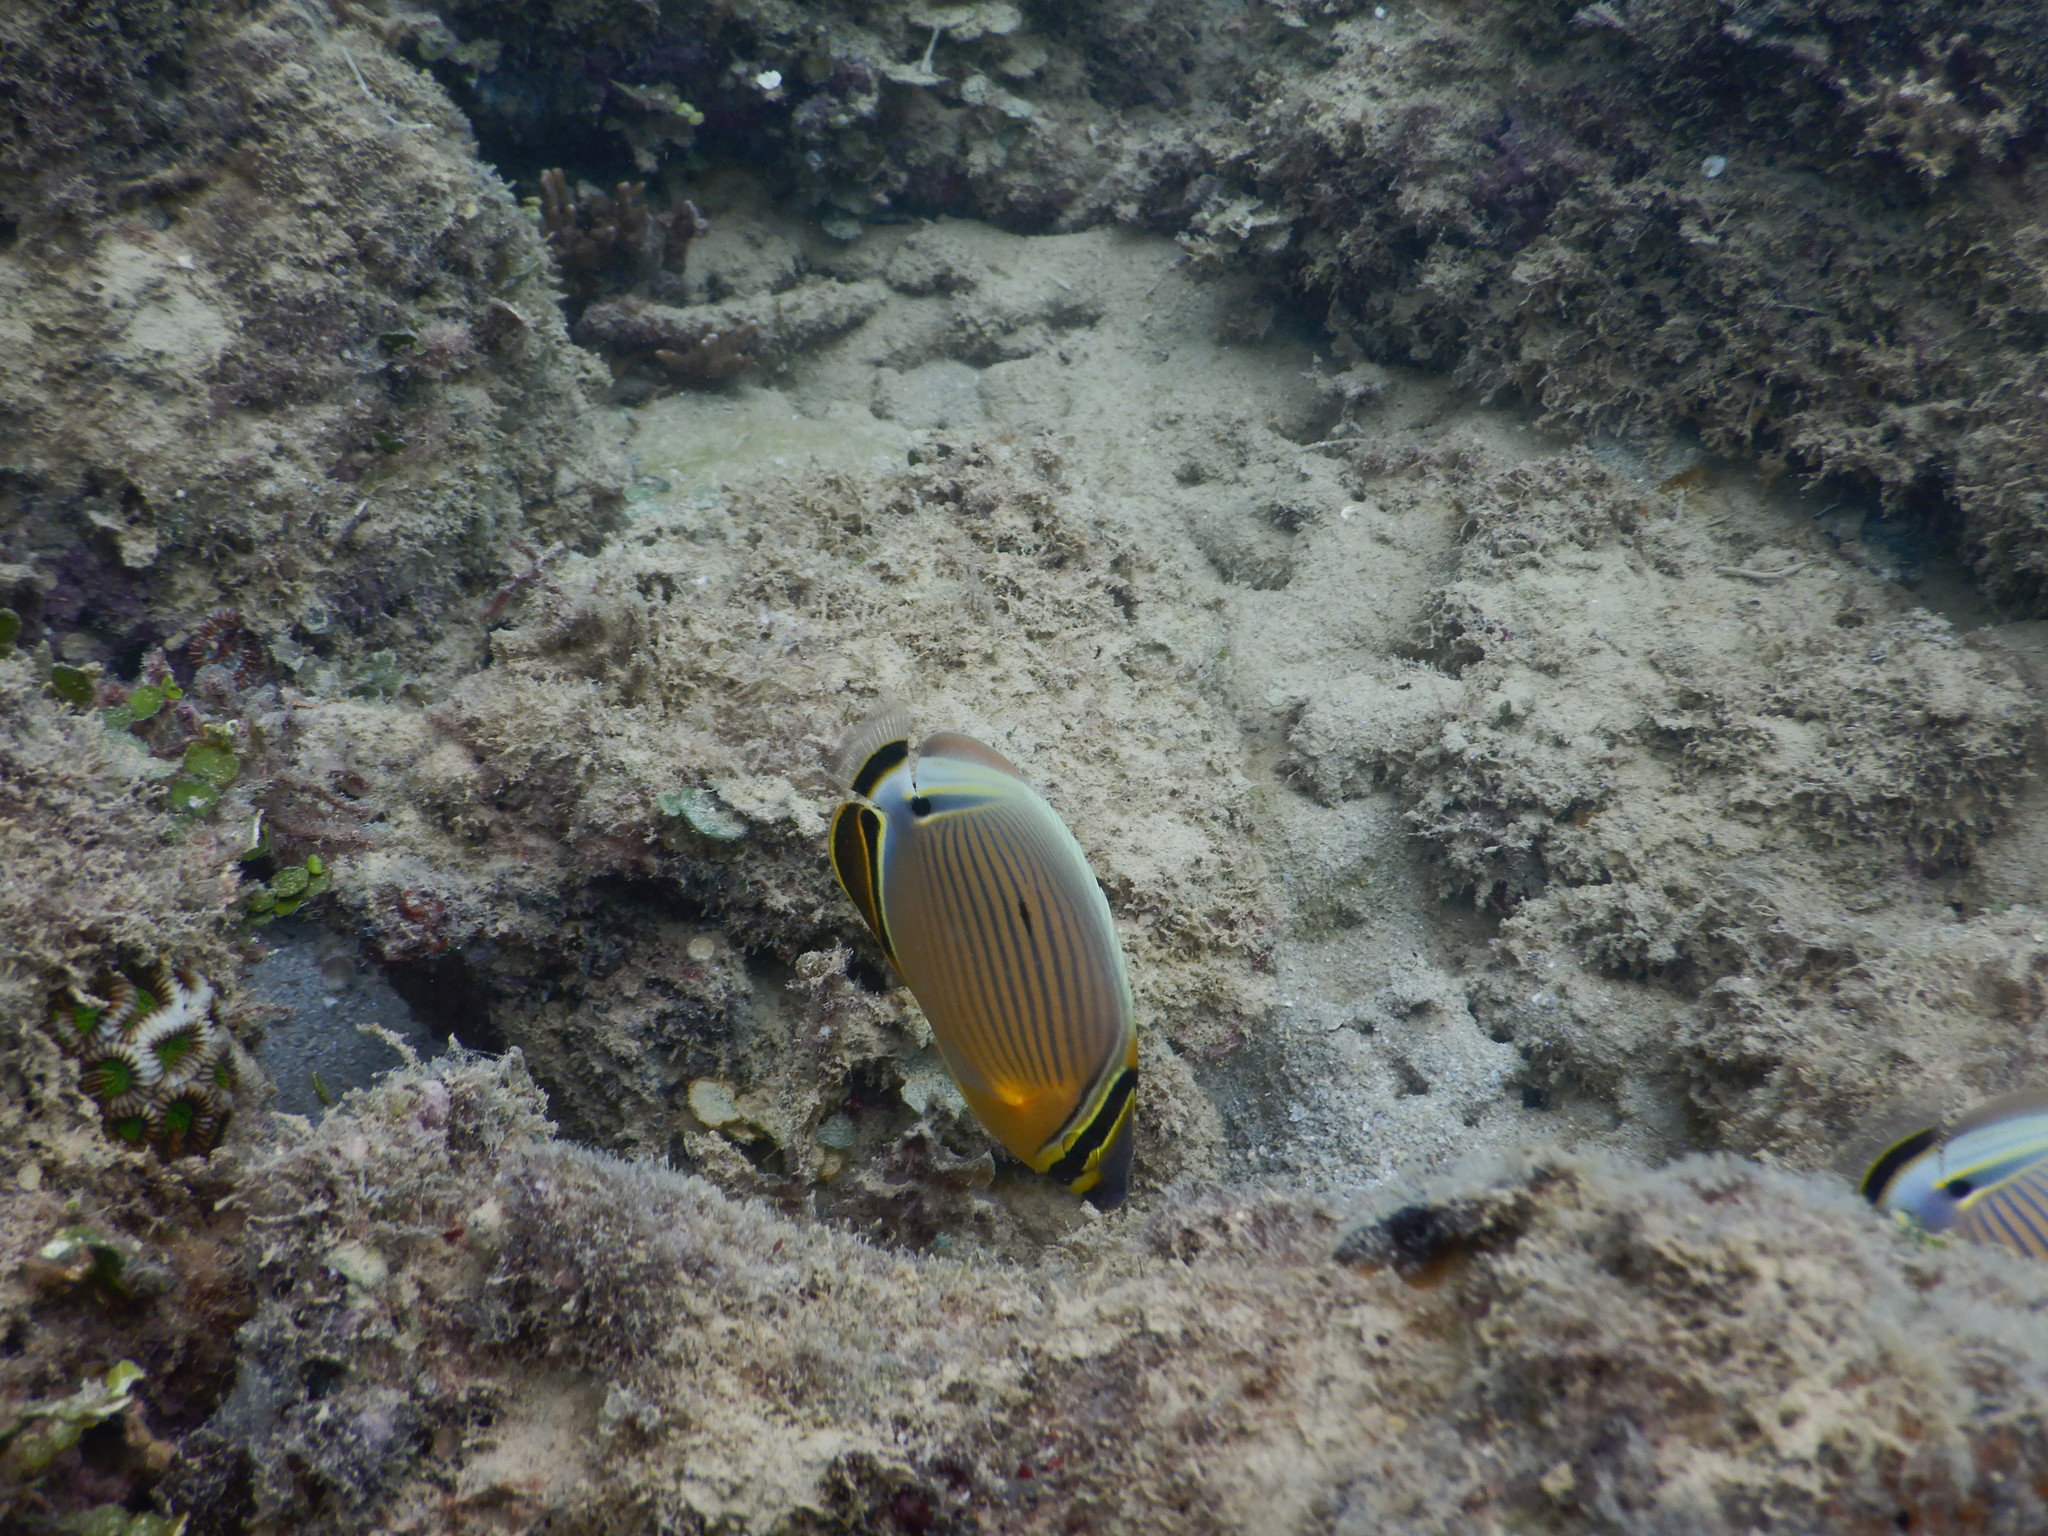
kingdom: Animalia
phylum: Chordata
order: Perciformes
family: Chaetodontidae
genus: Chaetodon
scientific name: Chaetodon lunulatus
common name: Redfin butterflyfish
